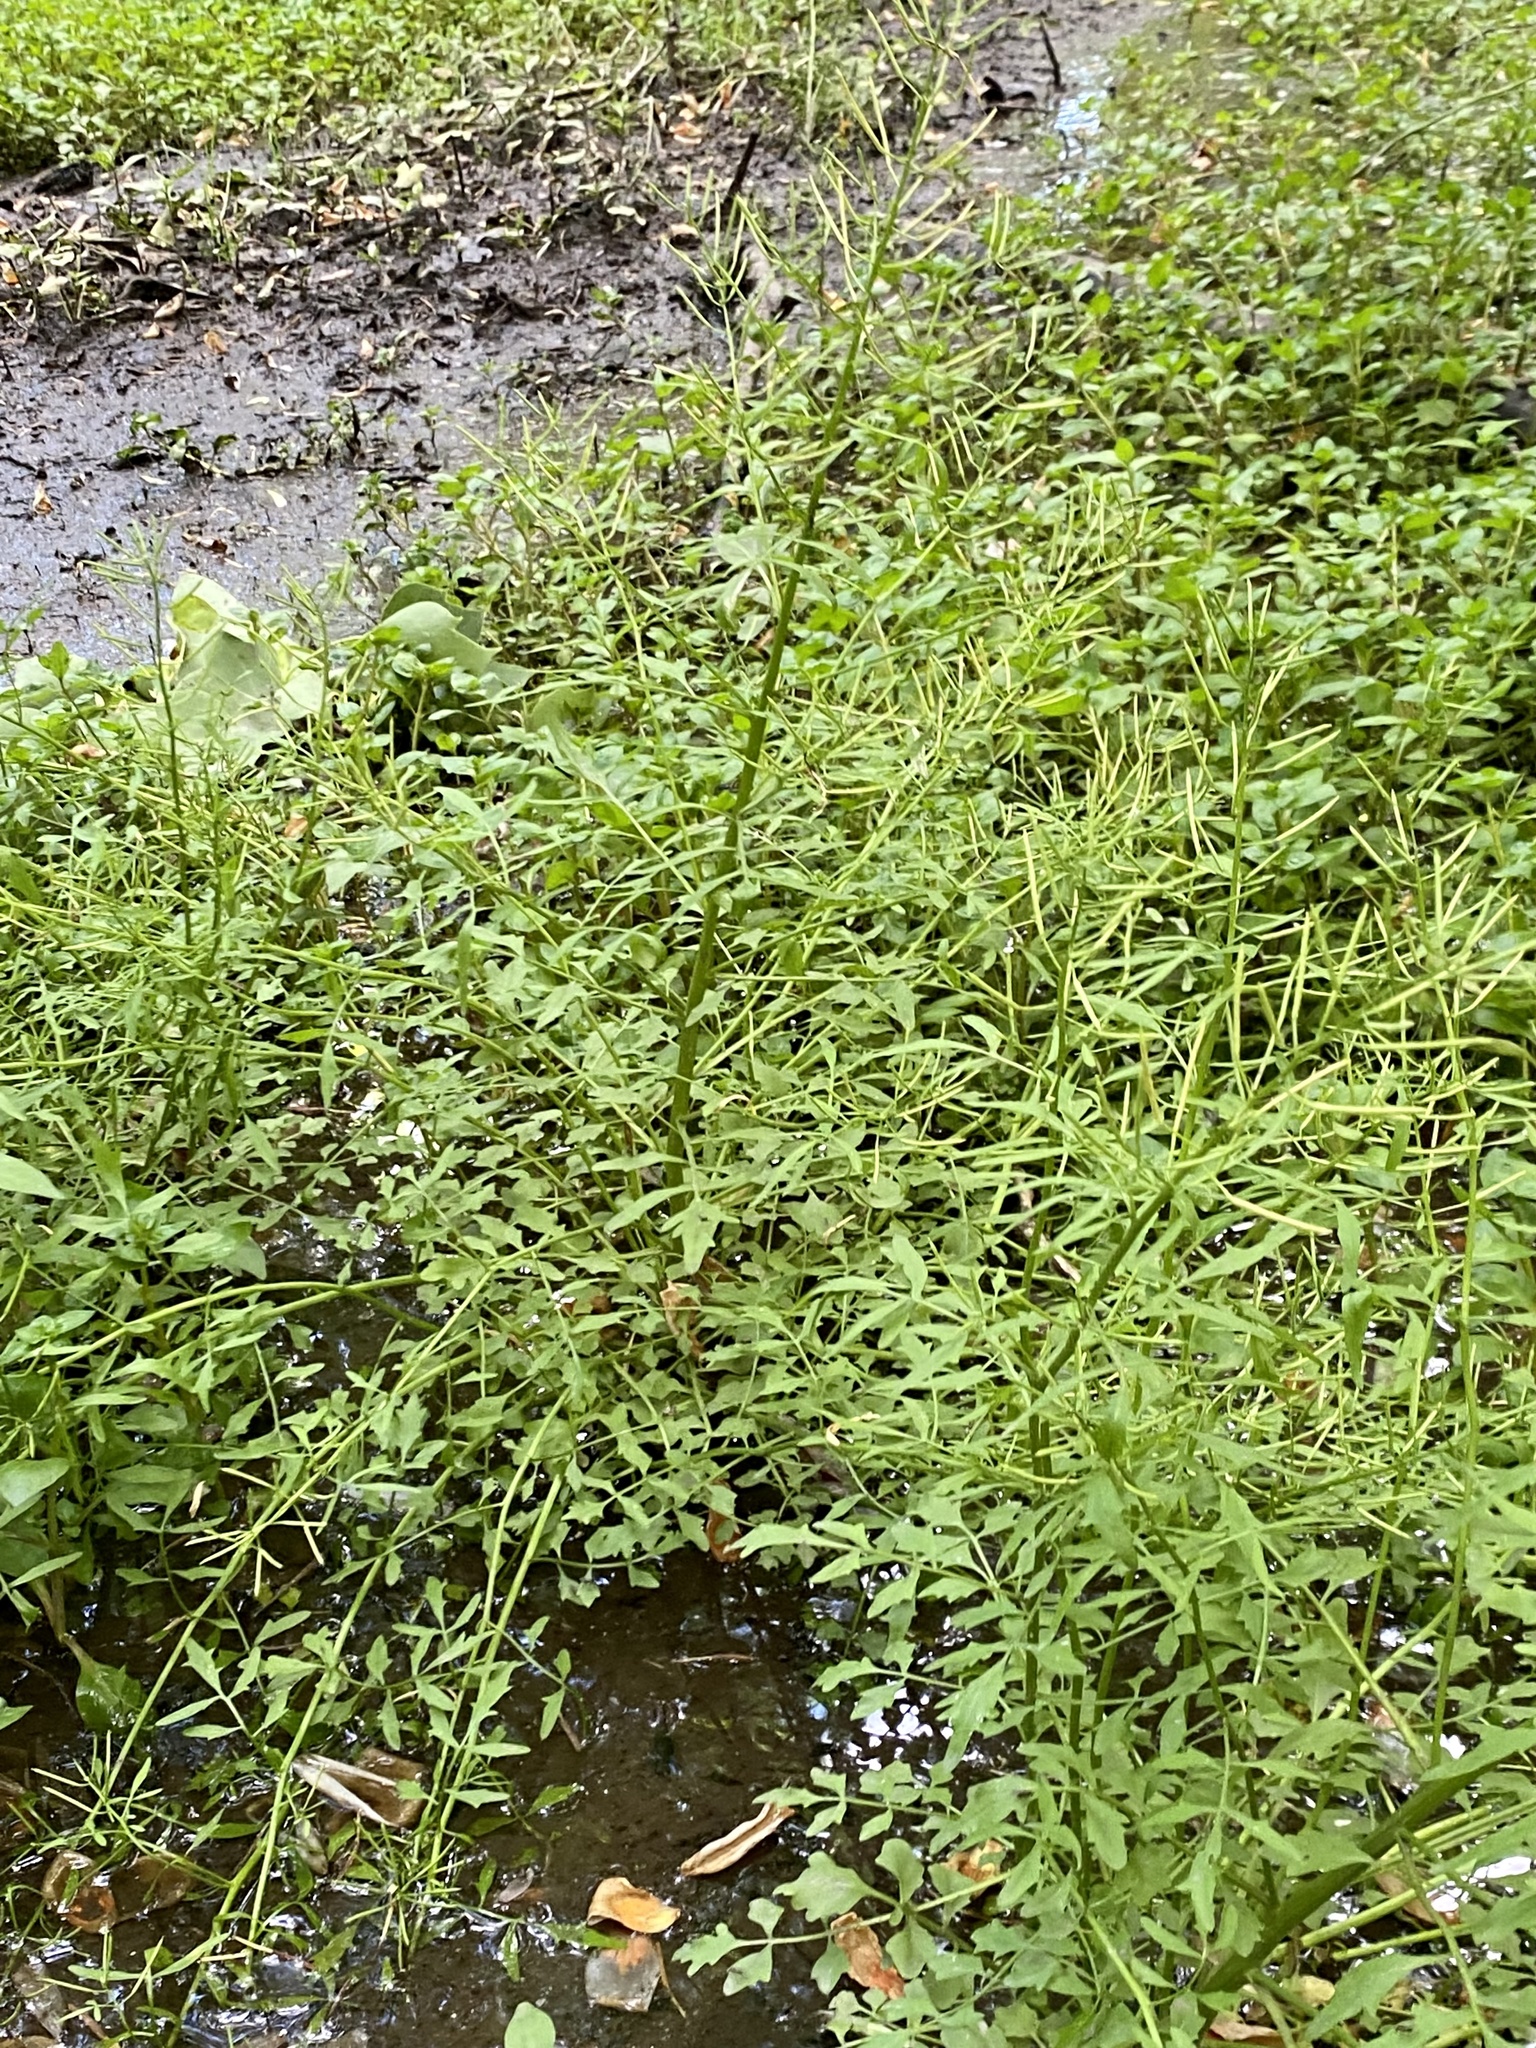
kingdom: Plantae
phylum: Tracheophyta
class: Magnoliopsida
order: Brassicales
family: Brassicaceae
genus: Cardamine
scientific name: Cardamine pensylvanica
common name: Pennsylvania bittercress
